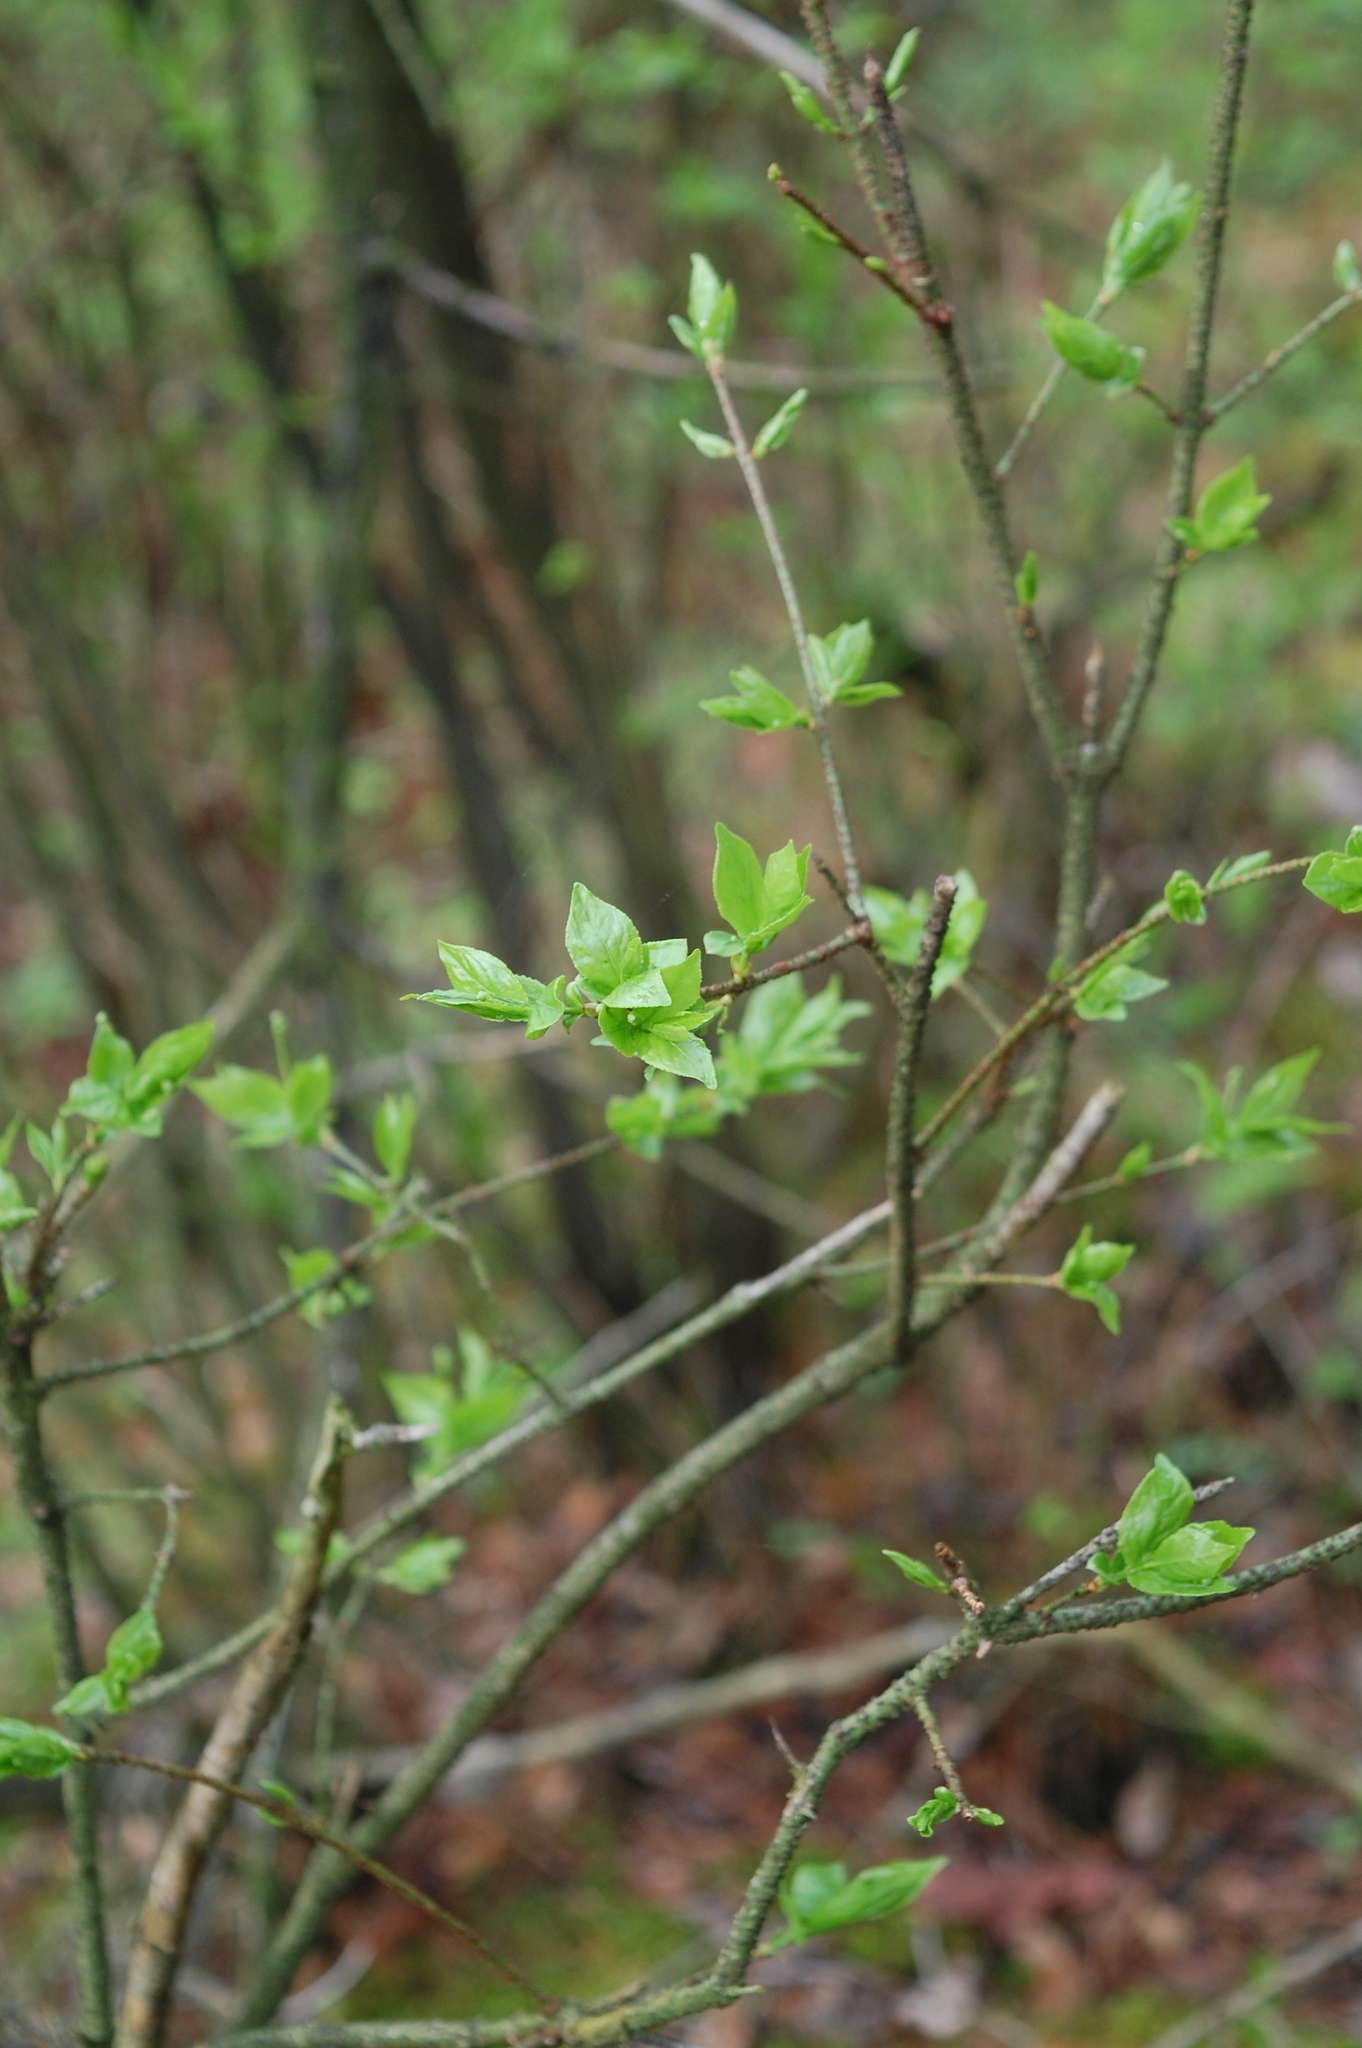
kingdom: Plantae
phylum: Tracheophyta
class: Magnoliopsida
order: Celastrales
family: Celastraceae
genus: Euonymus
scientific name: Euonymus verrucosus
